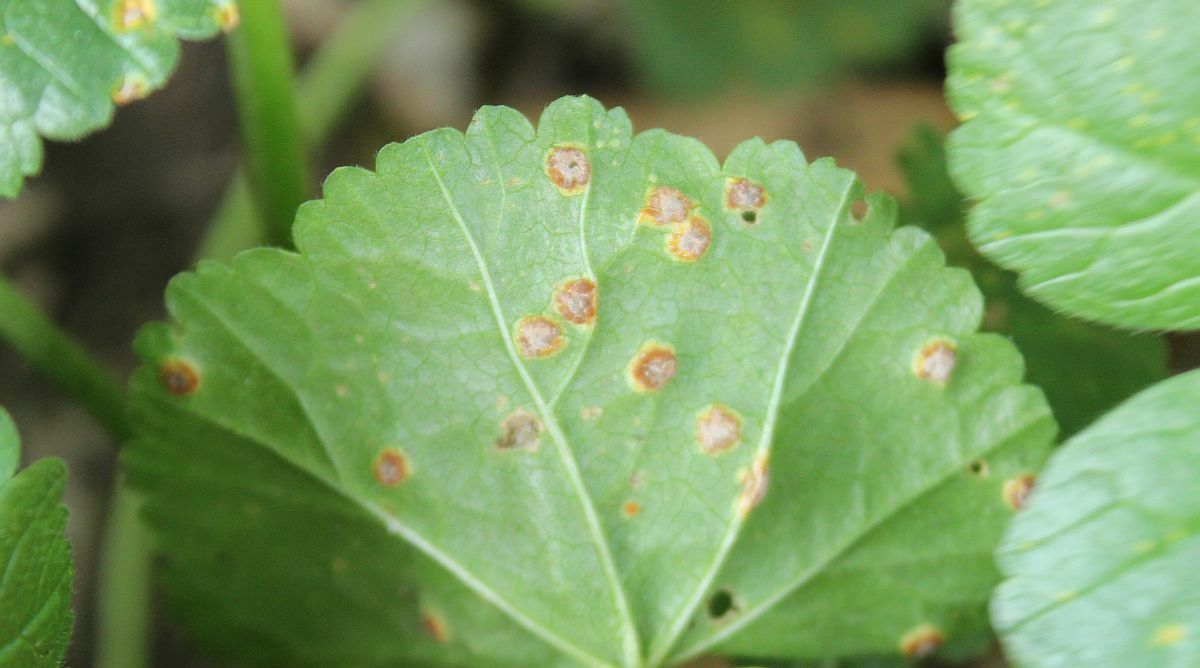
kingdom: Fungi
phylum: Basidiomycota
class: Pucciniomycetes
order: Pucciniales
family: Pucciniaceae
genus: Puccinia
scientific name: Puccinia malvacearum
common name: Hollyhock rust
